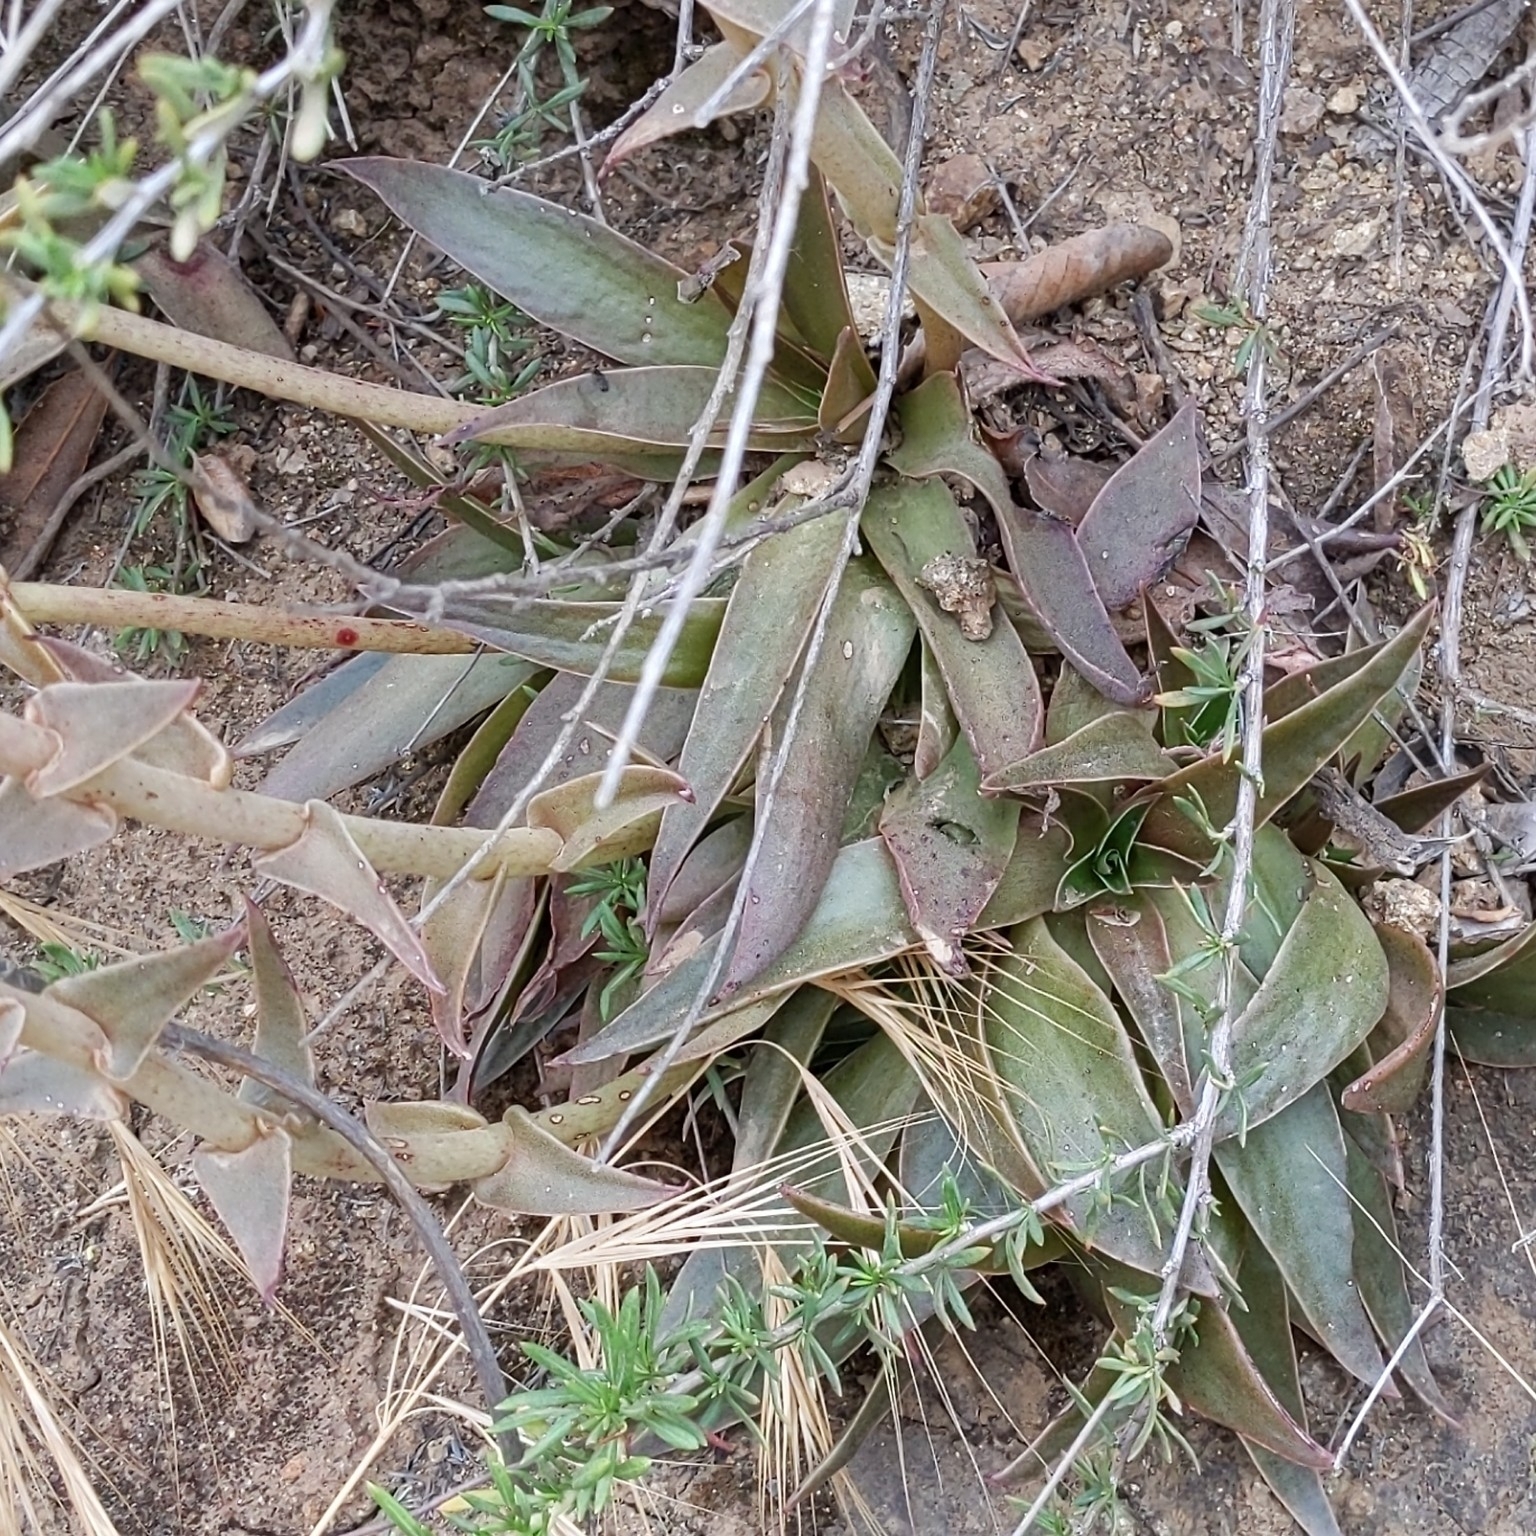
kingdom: Plantae
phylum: Tracheophyta
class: Magnoliopsida
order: Saxifragales
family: Crassulaceae
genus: Dudleya
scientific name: Dudleya lanceolata
